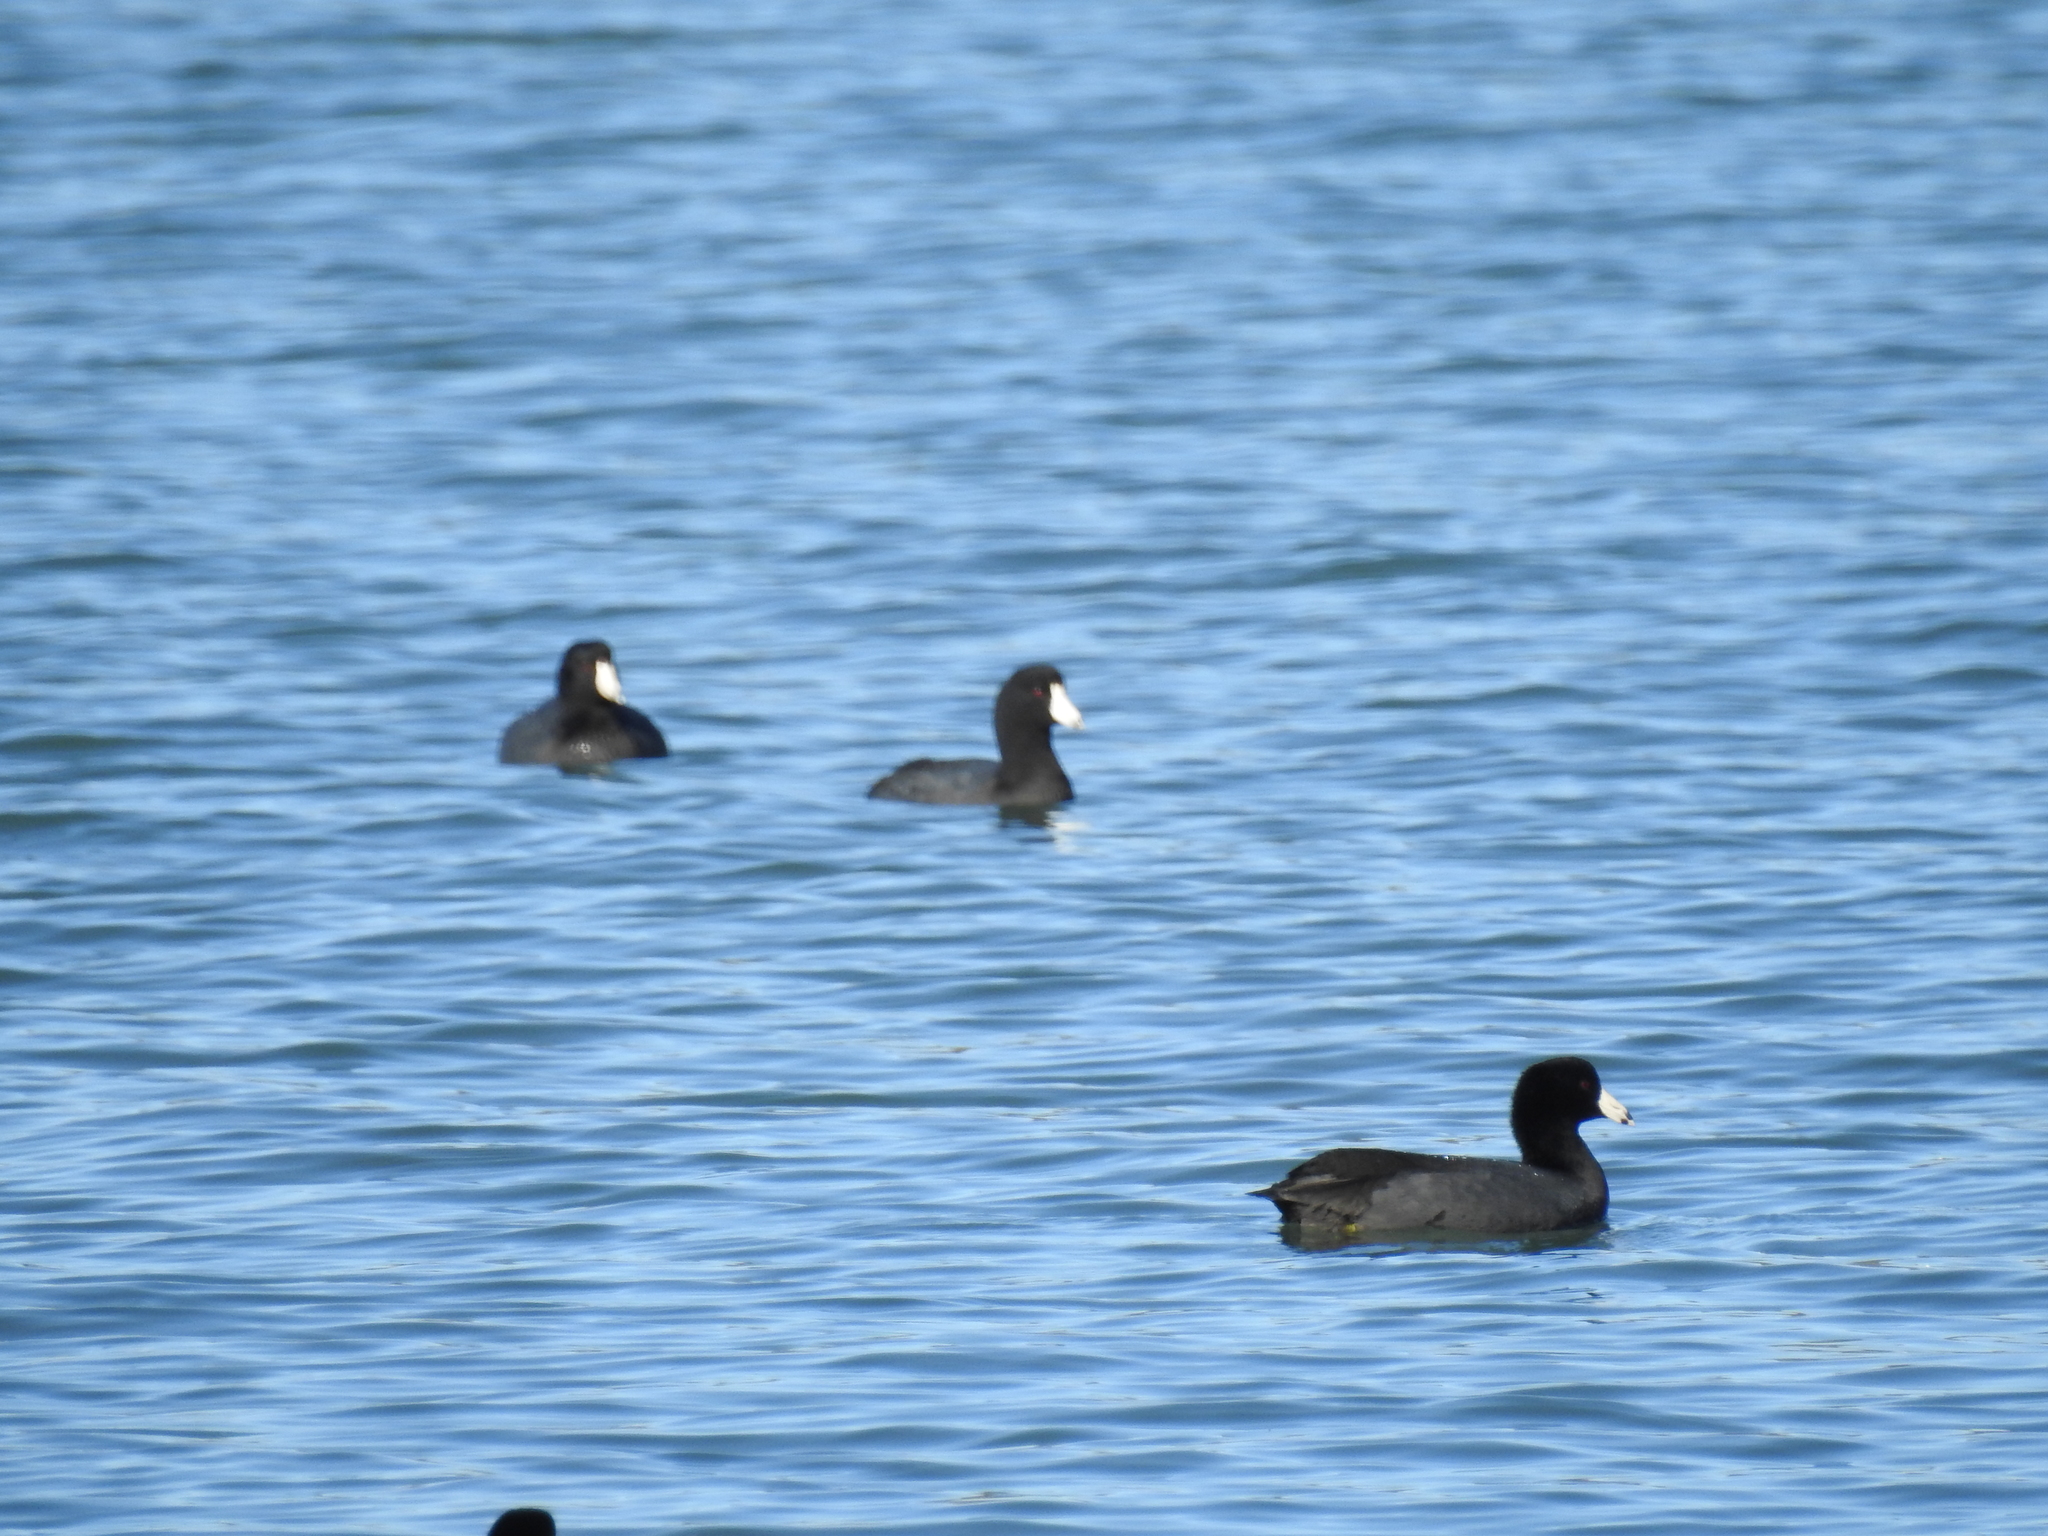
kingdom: Animalia
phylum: Chordata
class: Aves
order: Gruiformes
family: Rallidae
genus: Fulica
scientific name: Fulica americana
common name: American coot
